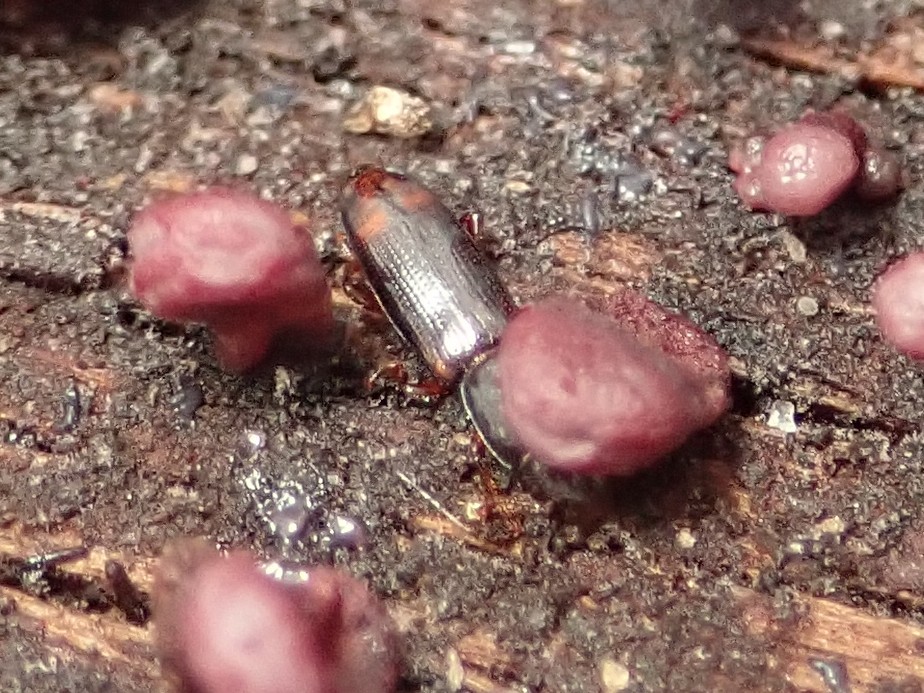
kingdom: Animalia
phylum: Arthropoda
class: Insecta
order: Coleoptera
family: Monotomidae
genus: Rhizophagus
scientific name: Rhizophagus bipustulatus
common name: Root-eating beetle
